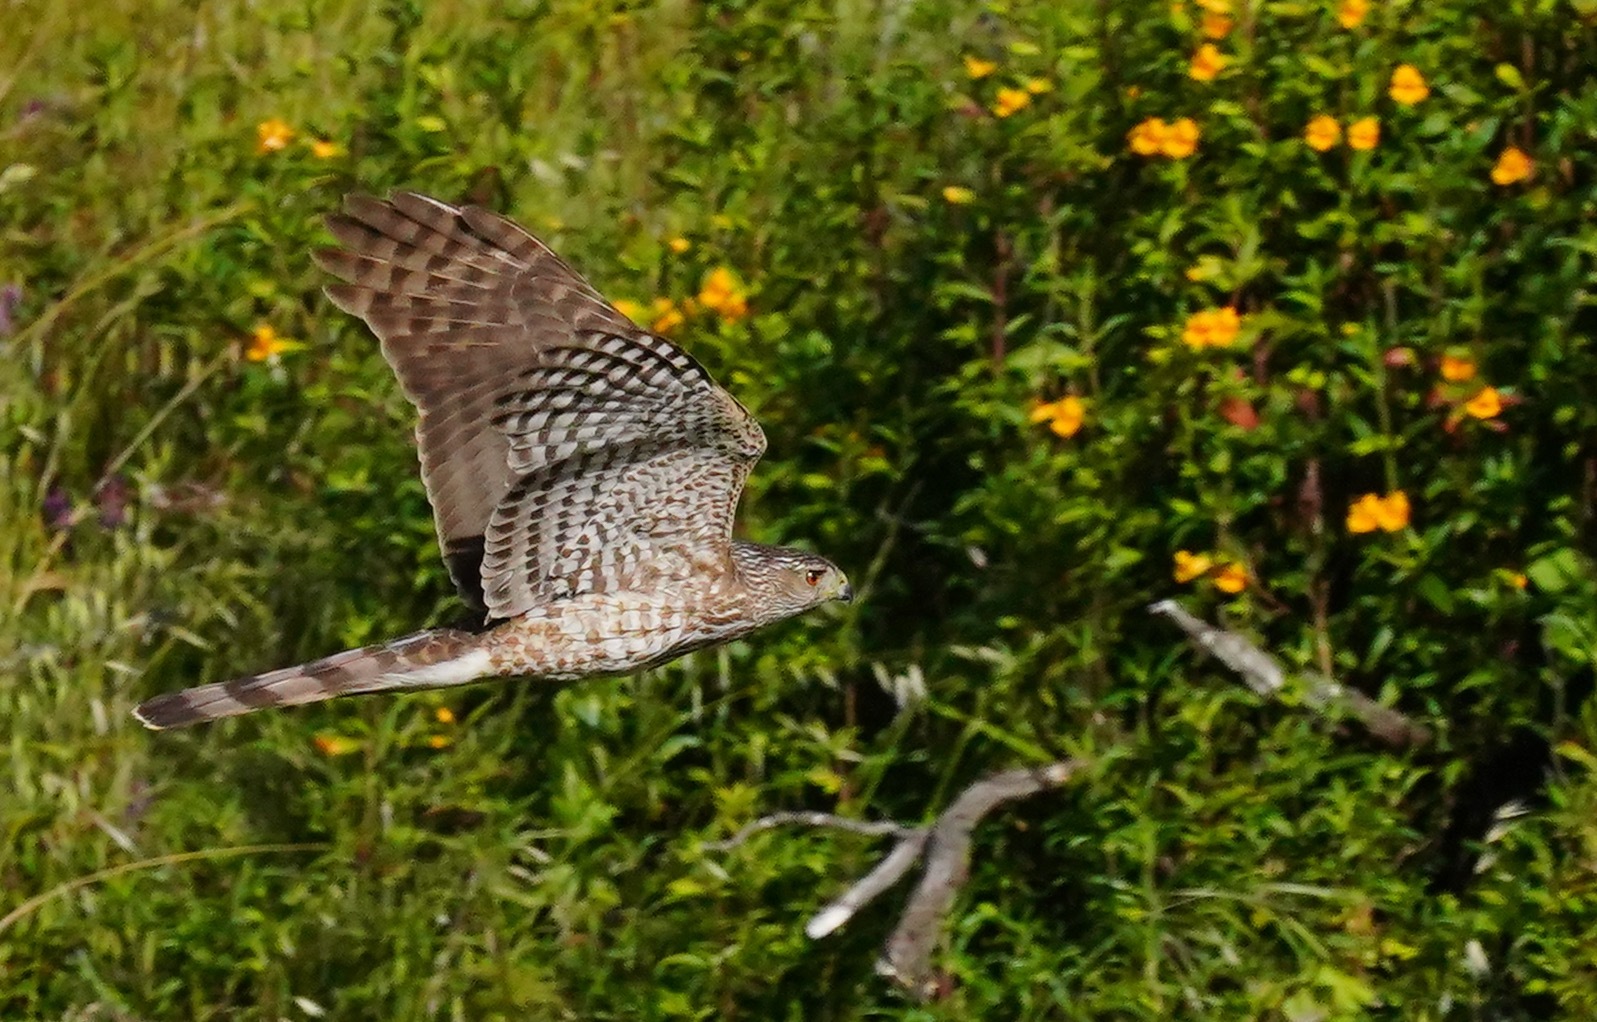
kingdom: Animalia
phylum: Chordata
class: Aves
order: Accipitriformes
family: Accipitridae
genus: Accipiter
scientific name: Accipiter cooperii
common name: Cooper's hawk
